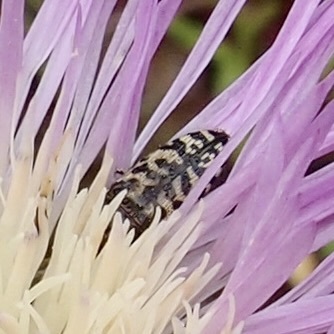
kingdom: Animalia
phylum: Arthropoda
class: Insecta
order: Coleoptera
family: Buprestidae
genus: Acmaeodera
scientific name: Acmaeodera decipiens
